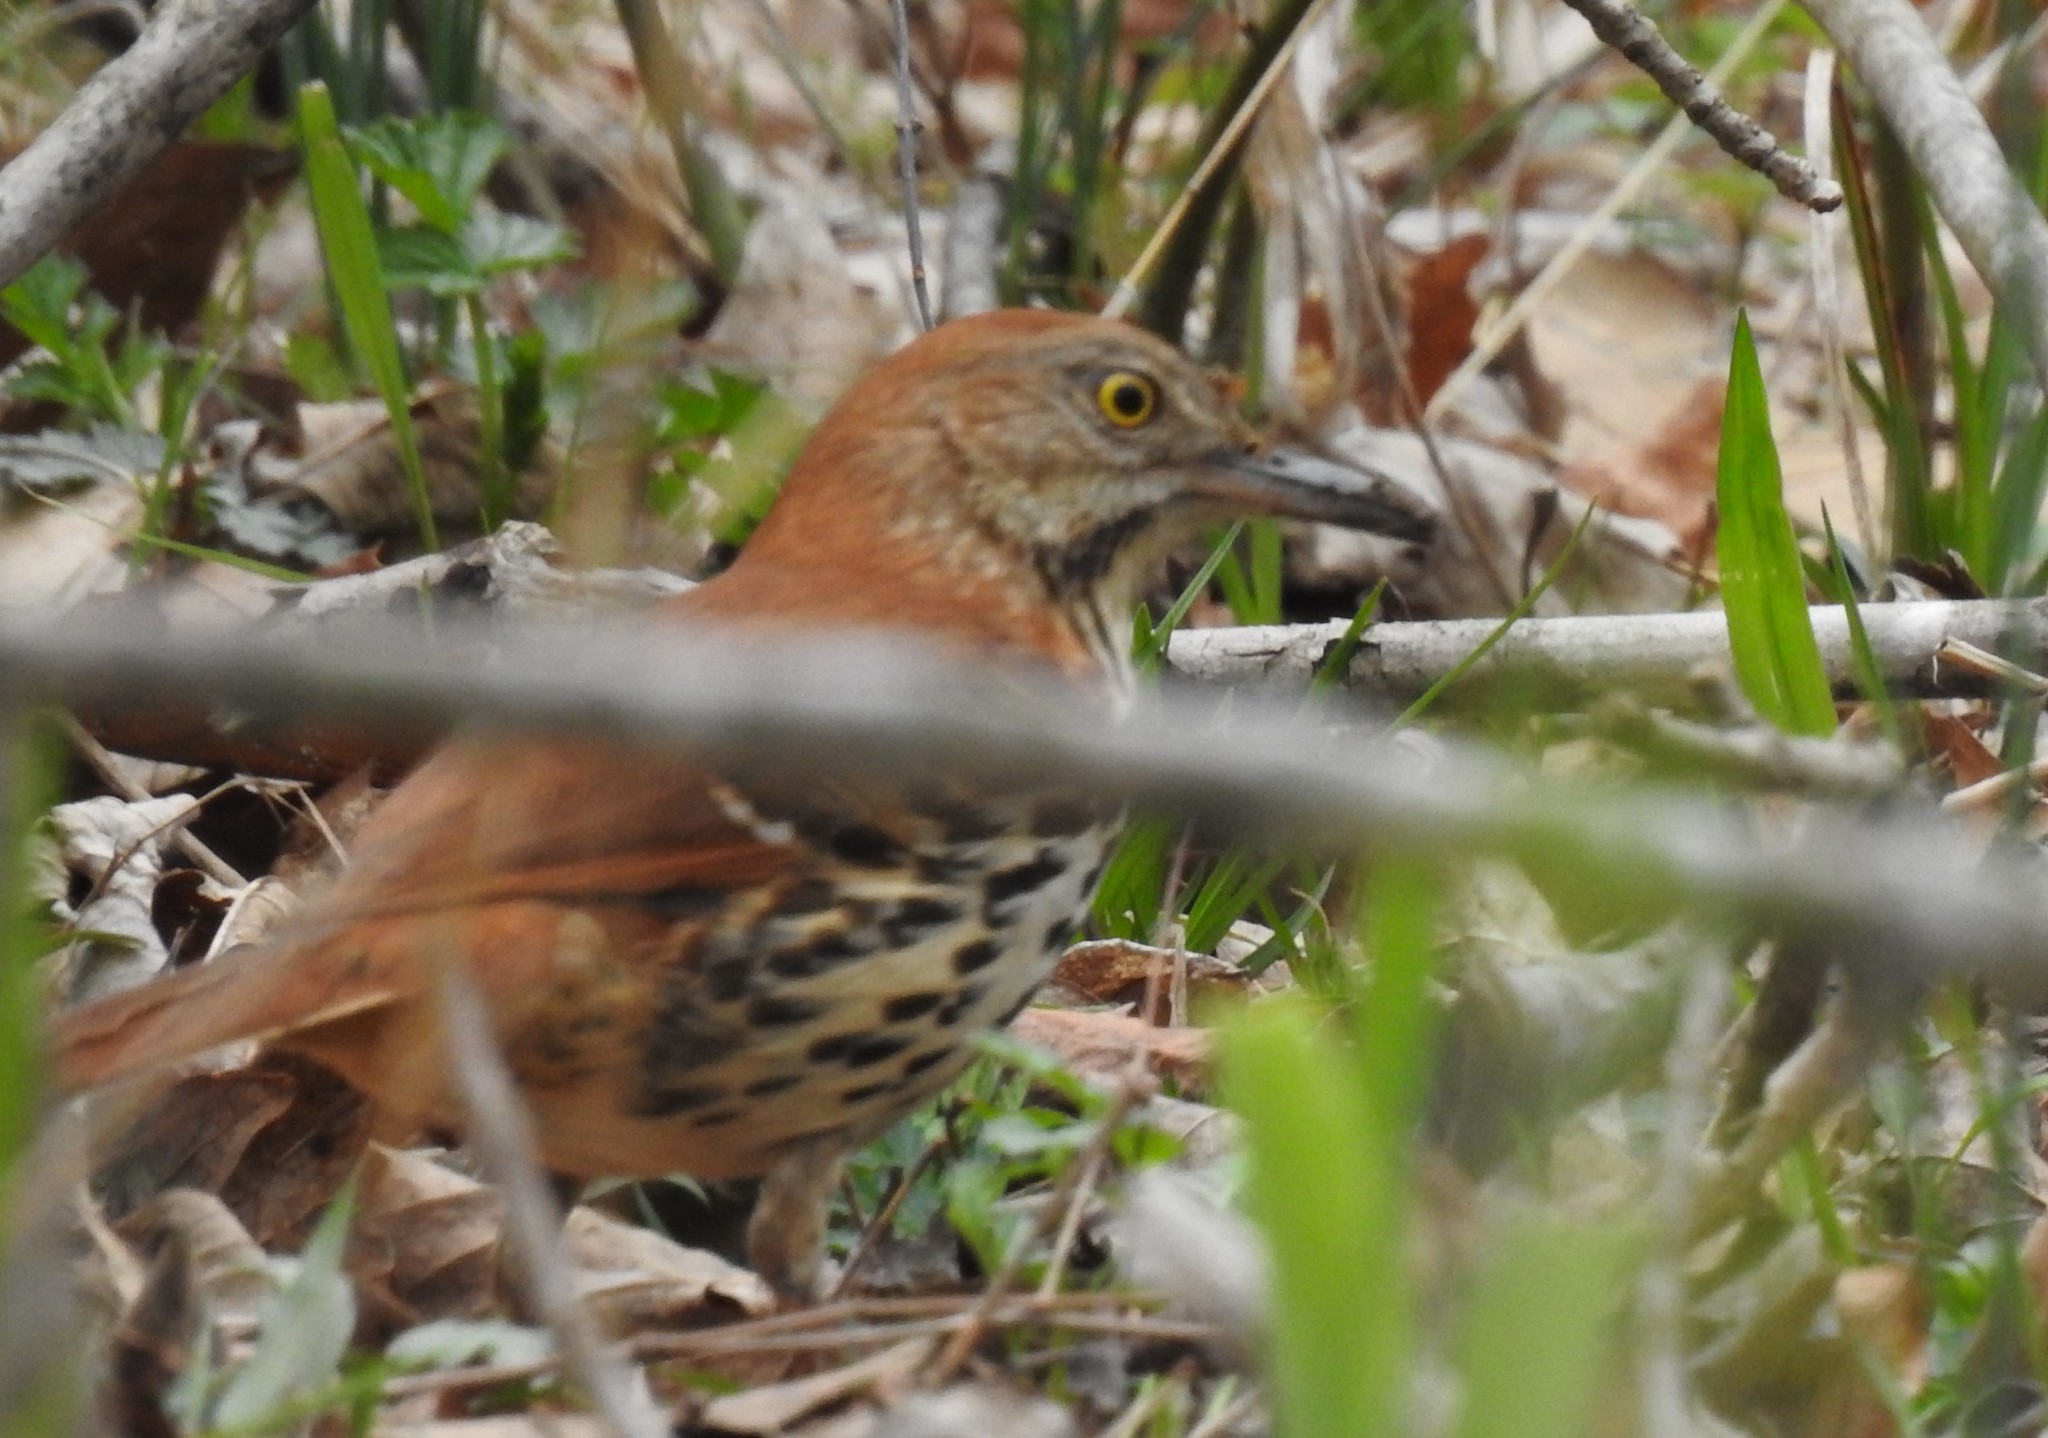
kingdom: Animalia
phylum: Chordata
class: Aves
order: Passeriformes
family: Mimidae
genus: Toxostoma
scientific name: Toxostoma rufum
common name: Brown thrasher
